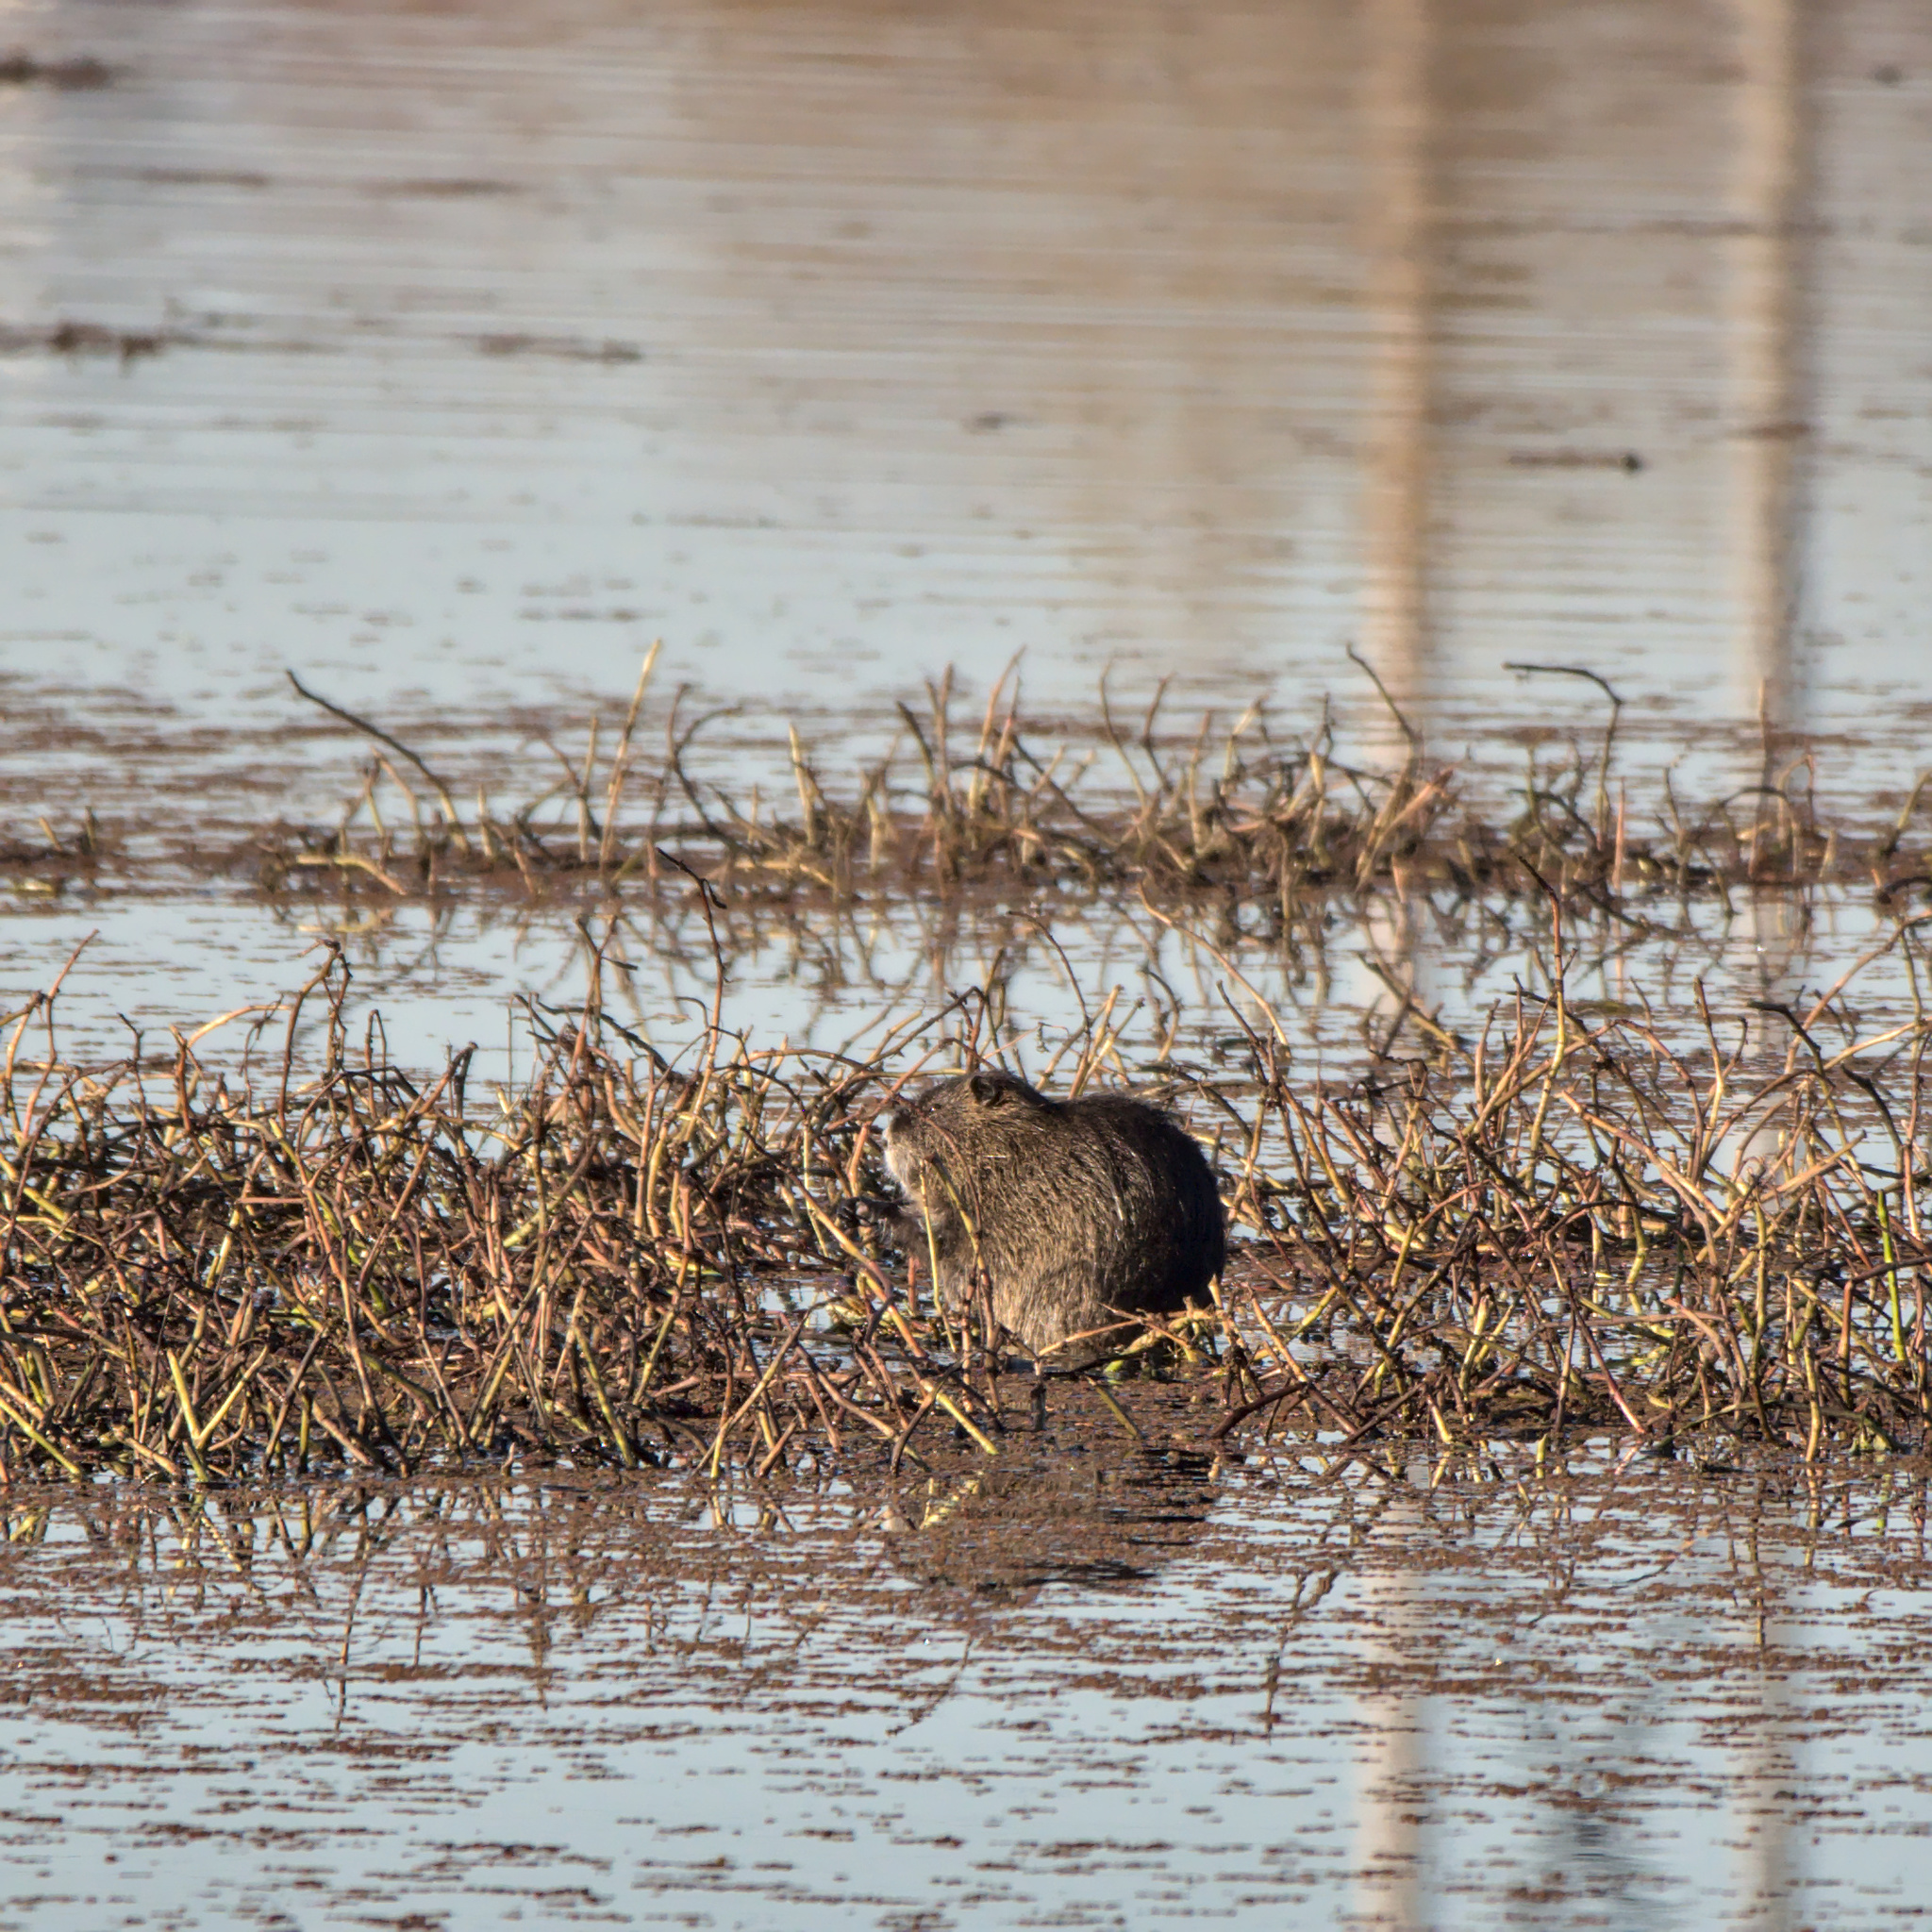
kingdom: Animalia
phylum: Chordata
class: Mammalia
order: Rodentia
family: Myocastoridae
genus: Myocastor
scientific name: Myocastor coypus
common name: Coypu
